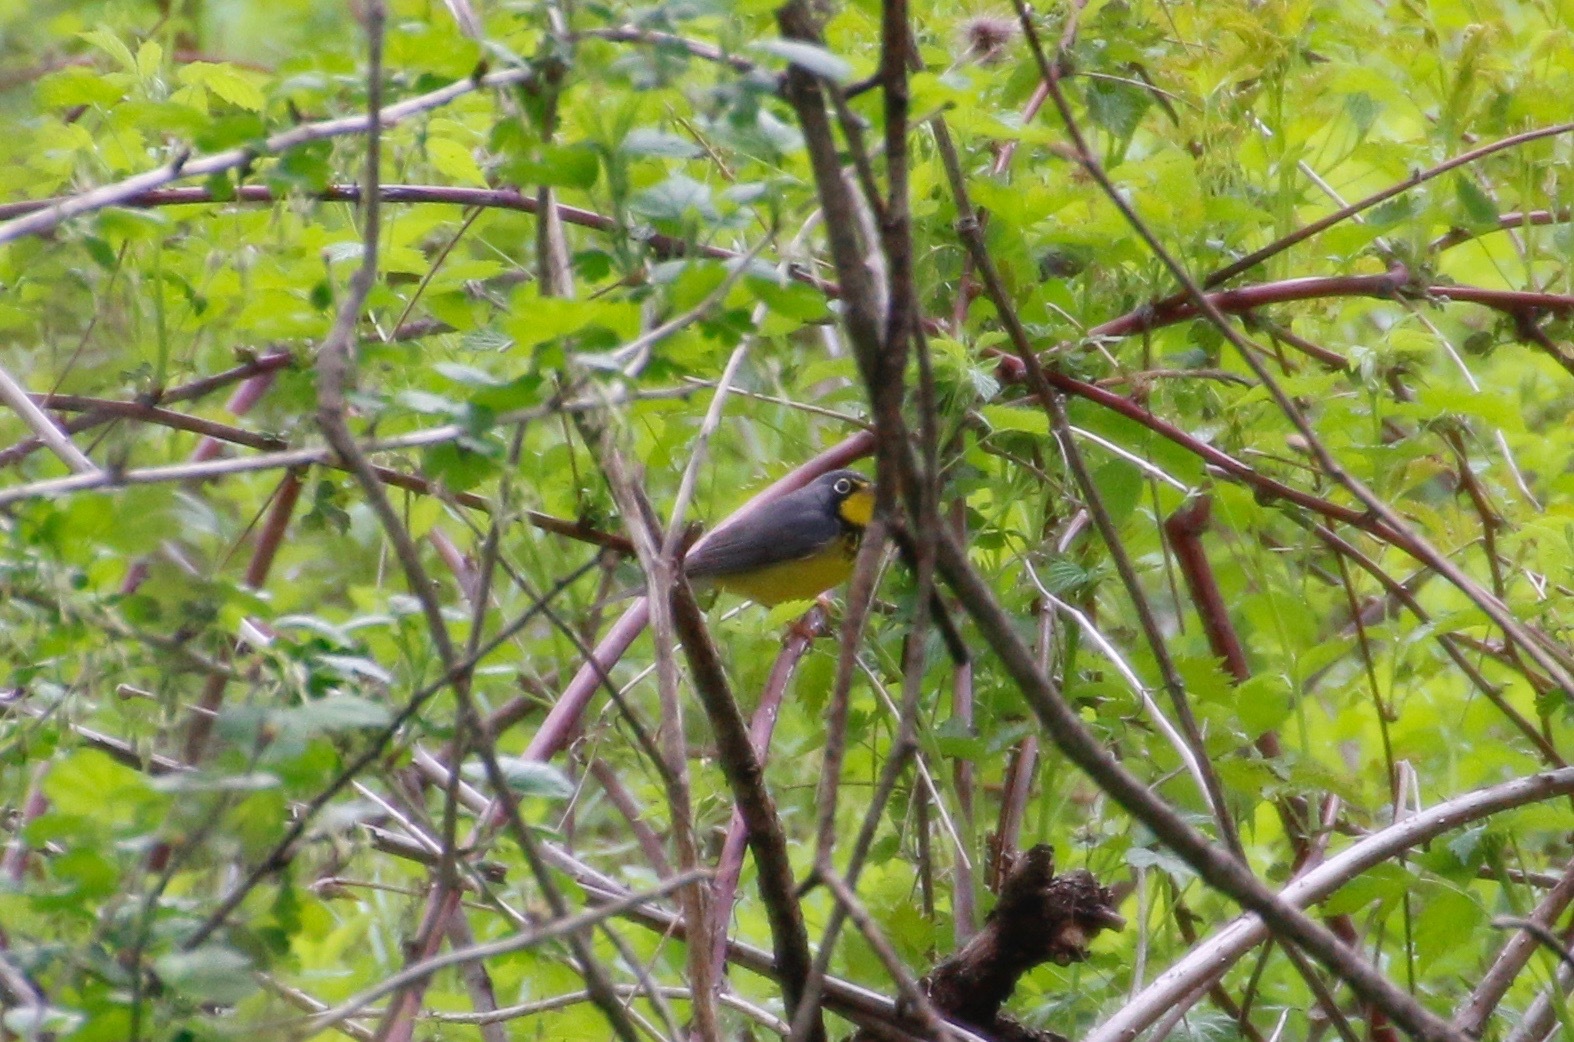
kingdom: Animalia
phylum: Chordata
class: Aves
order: Passeriformes
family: Parulidae
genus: Cardellina
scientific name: Cardellina canadensis
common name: Canada warbler
